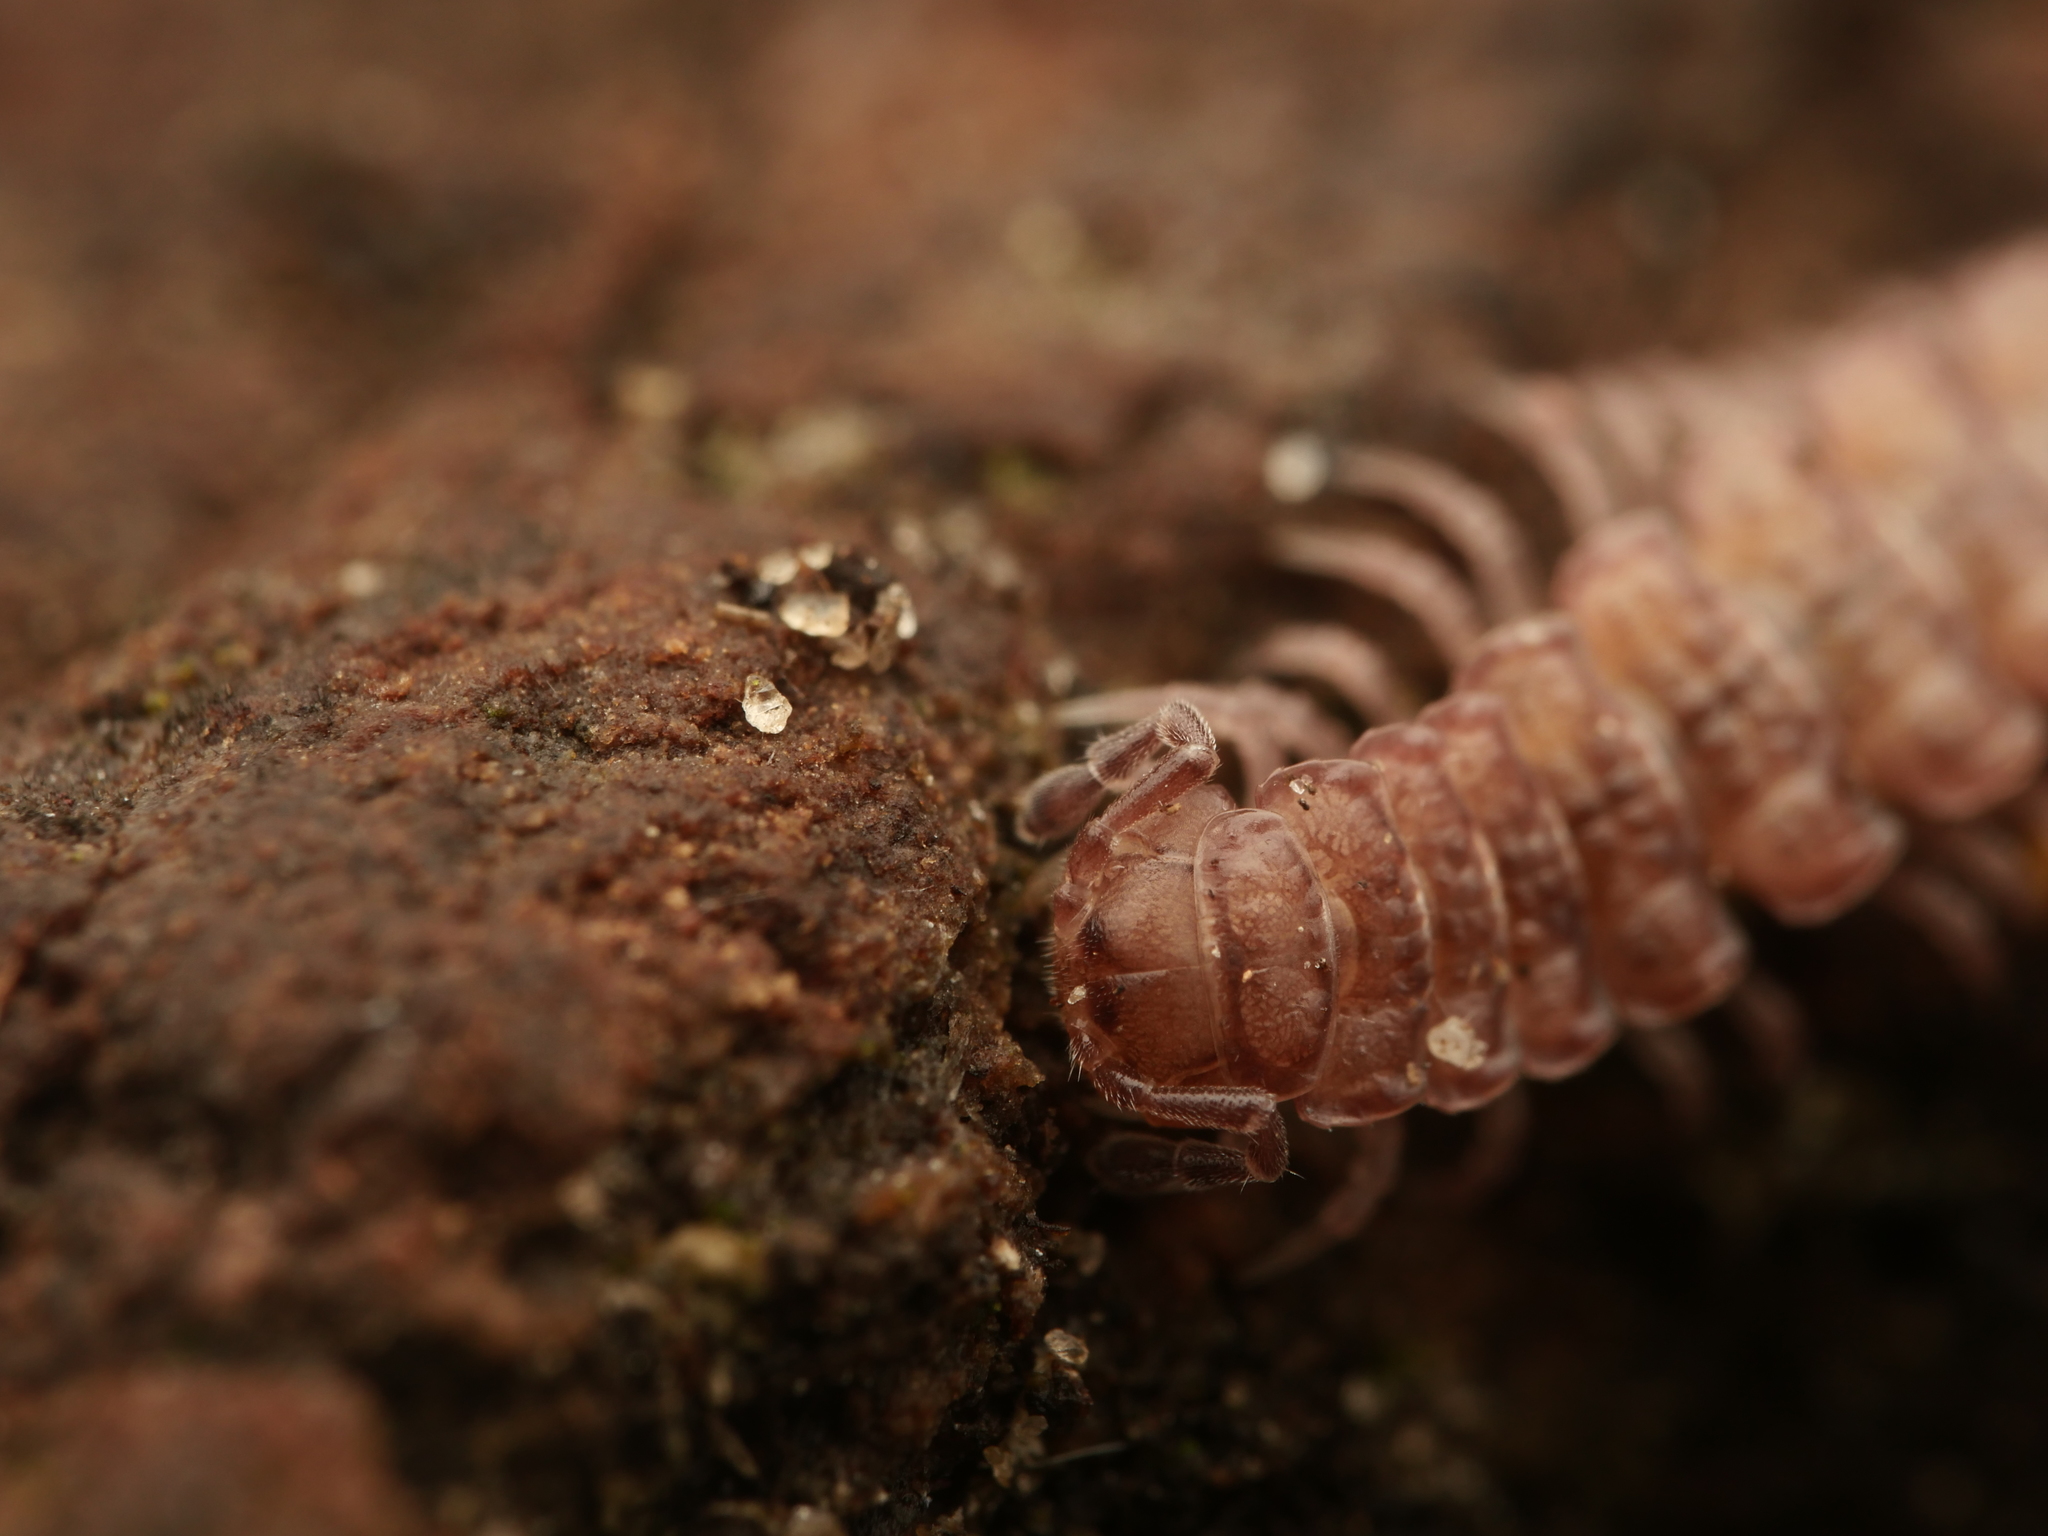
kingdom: Animalia
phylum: Arthropoda
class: Diplopoda
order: Polydesmida
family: Polydesmidae
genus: Polydesmus
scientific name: Polydesmus angustus
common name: Flat millipede
